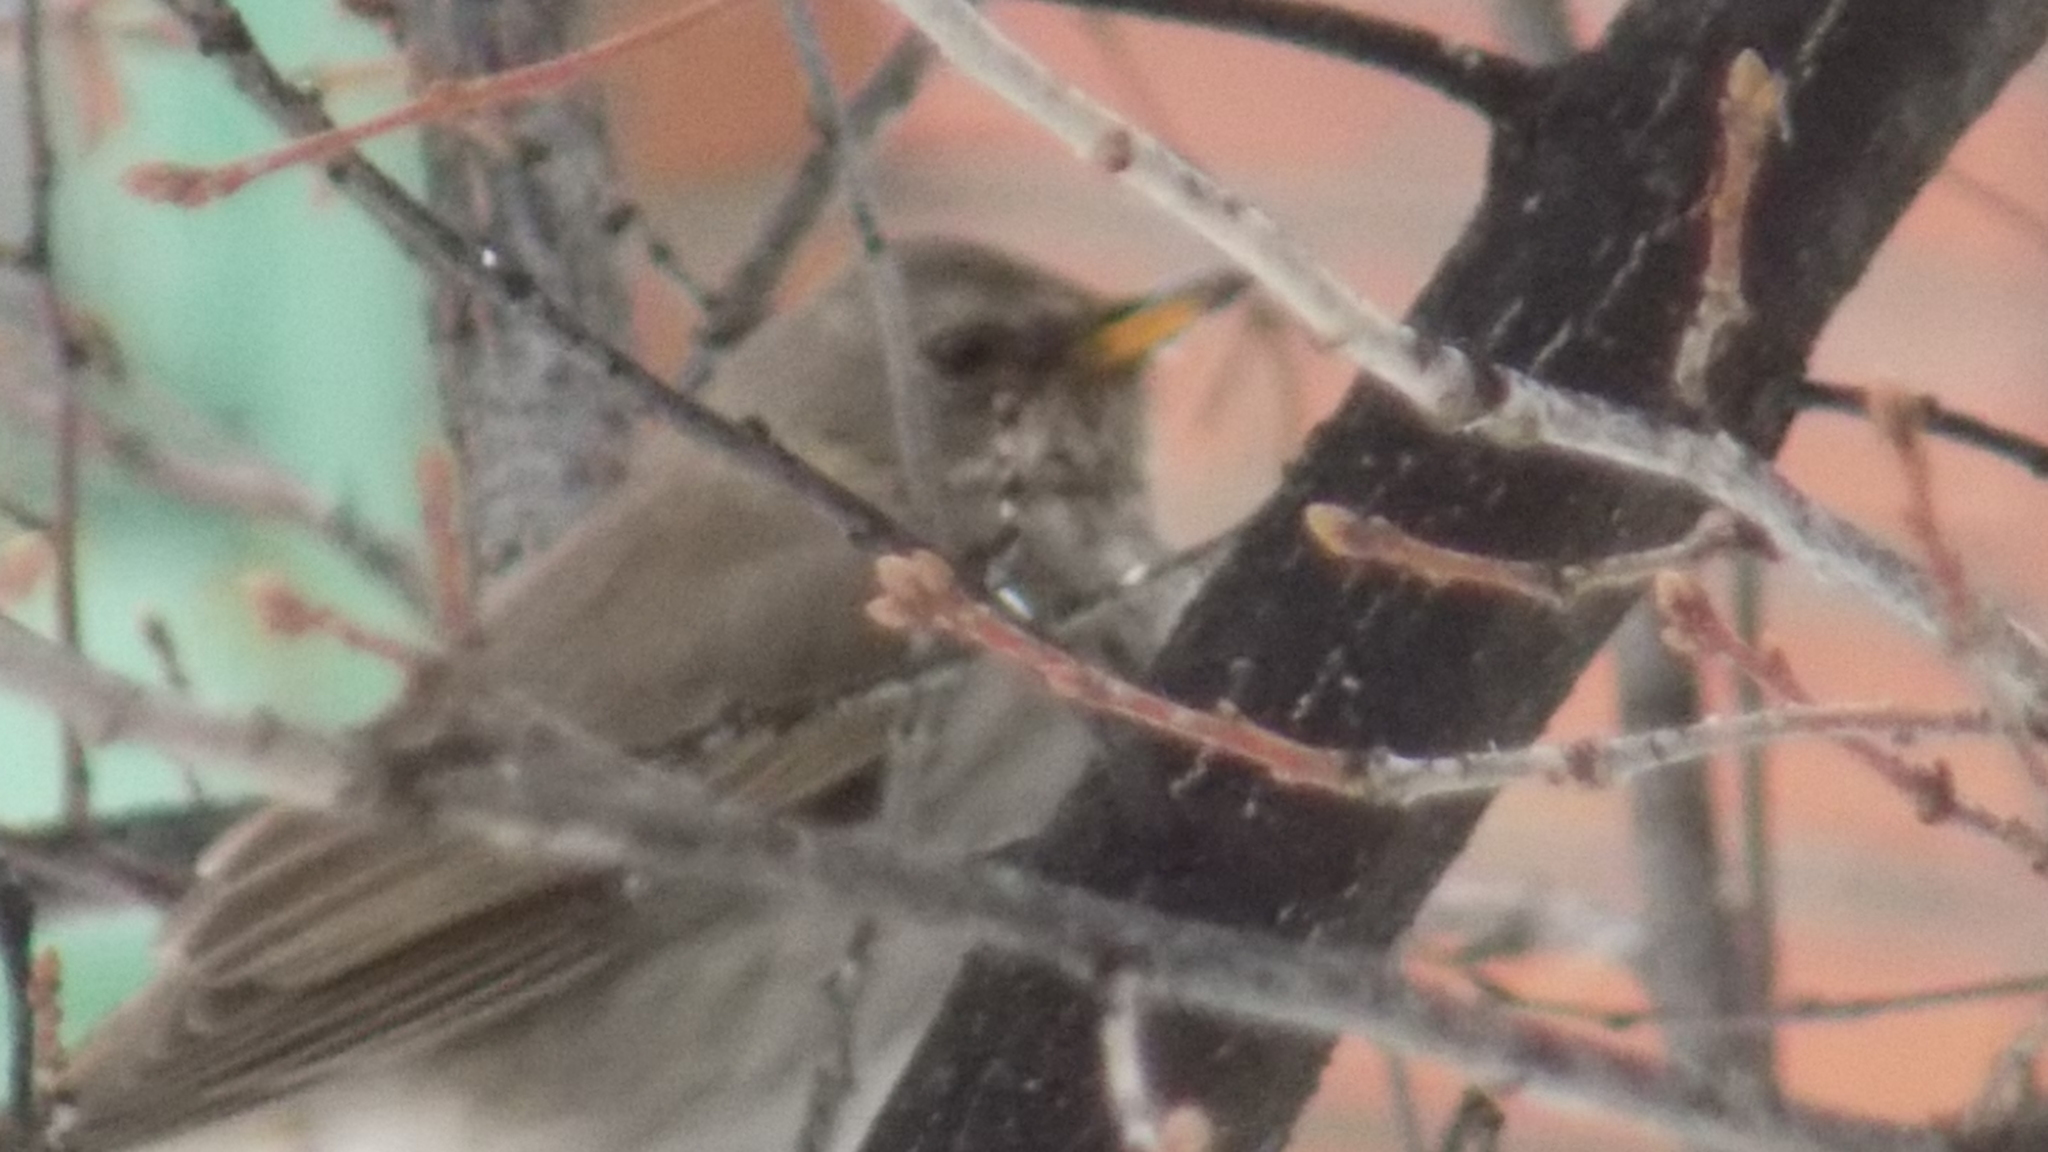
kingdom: Animalia
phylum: Chordata
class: Aves
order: Passeriformes
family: Turdidae
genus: Turdus
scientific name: Turdus atrogularis
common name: Black-throated thrush
